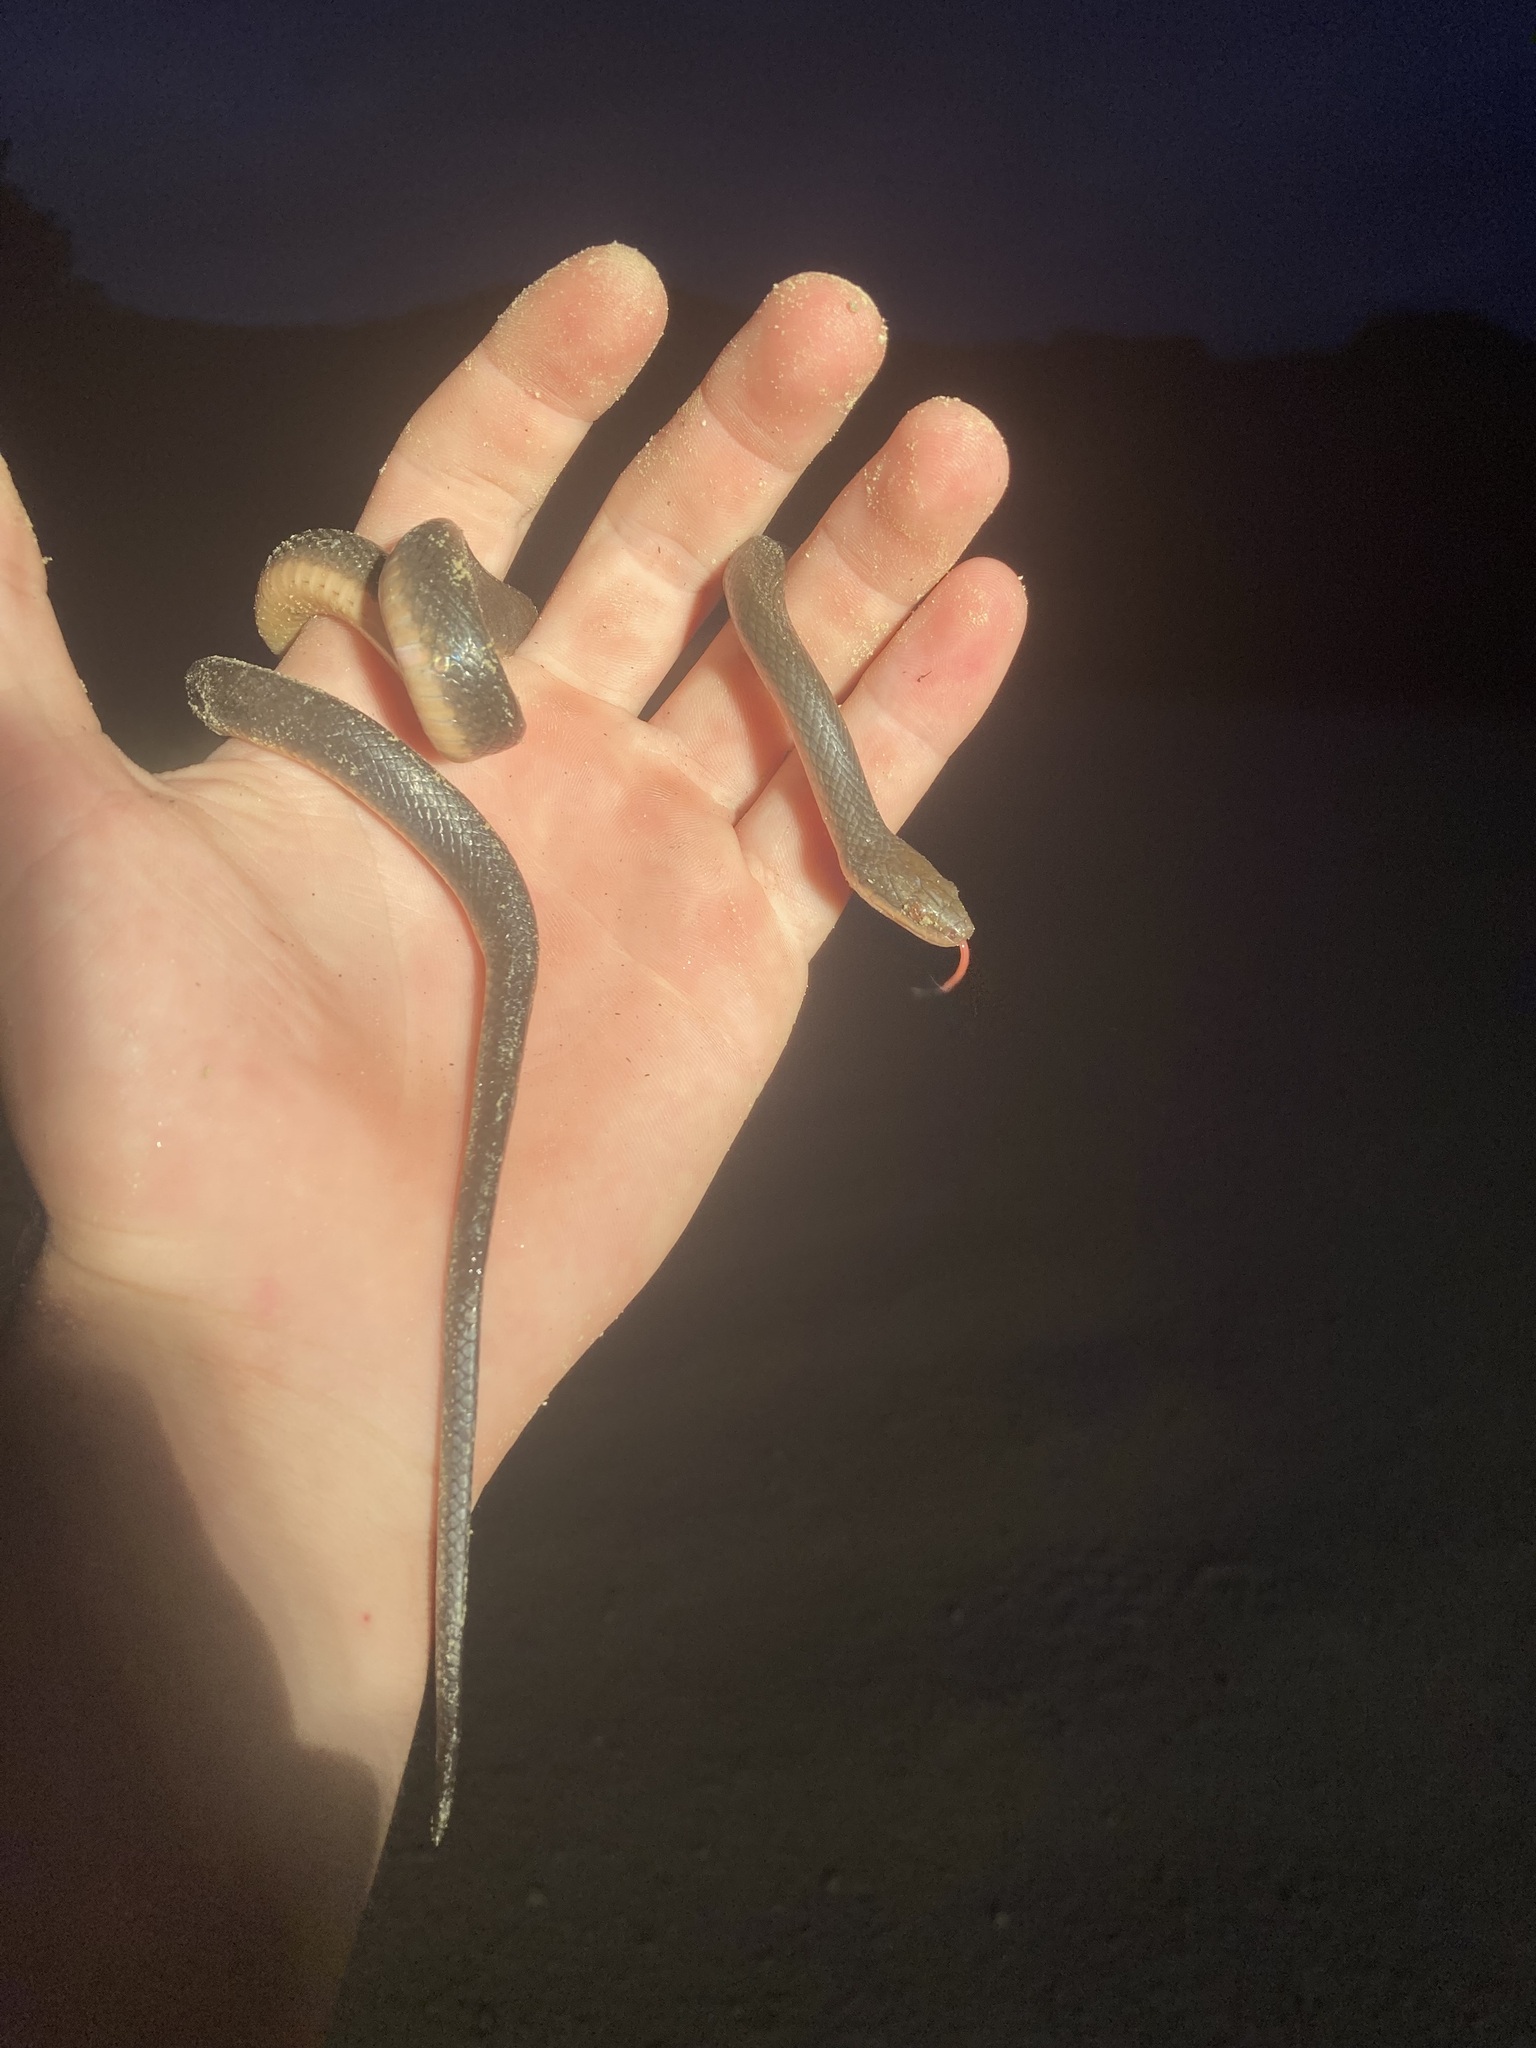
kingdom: Animalia
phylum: Chordata
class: Squamata
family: Lamprophiidae
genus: Lycodonomorphus
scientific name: Lycodonomorphus rufulus
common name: Brown water snake
